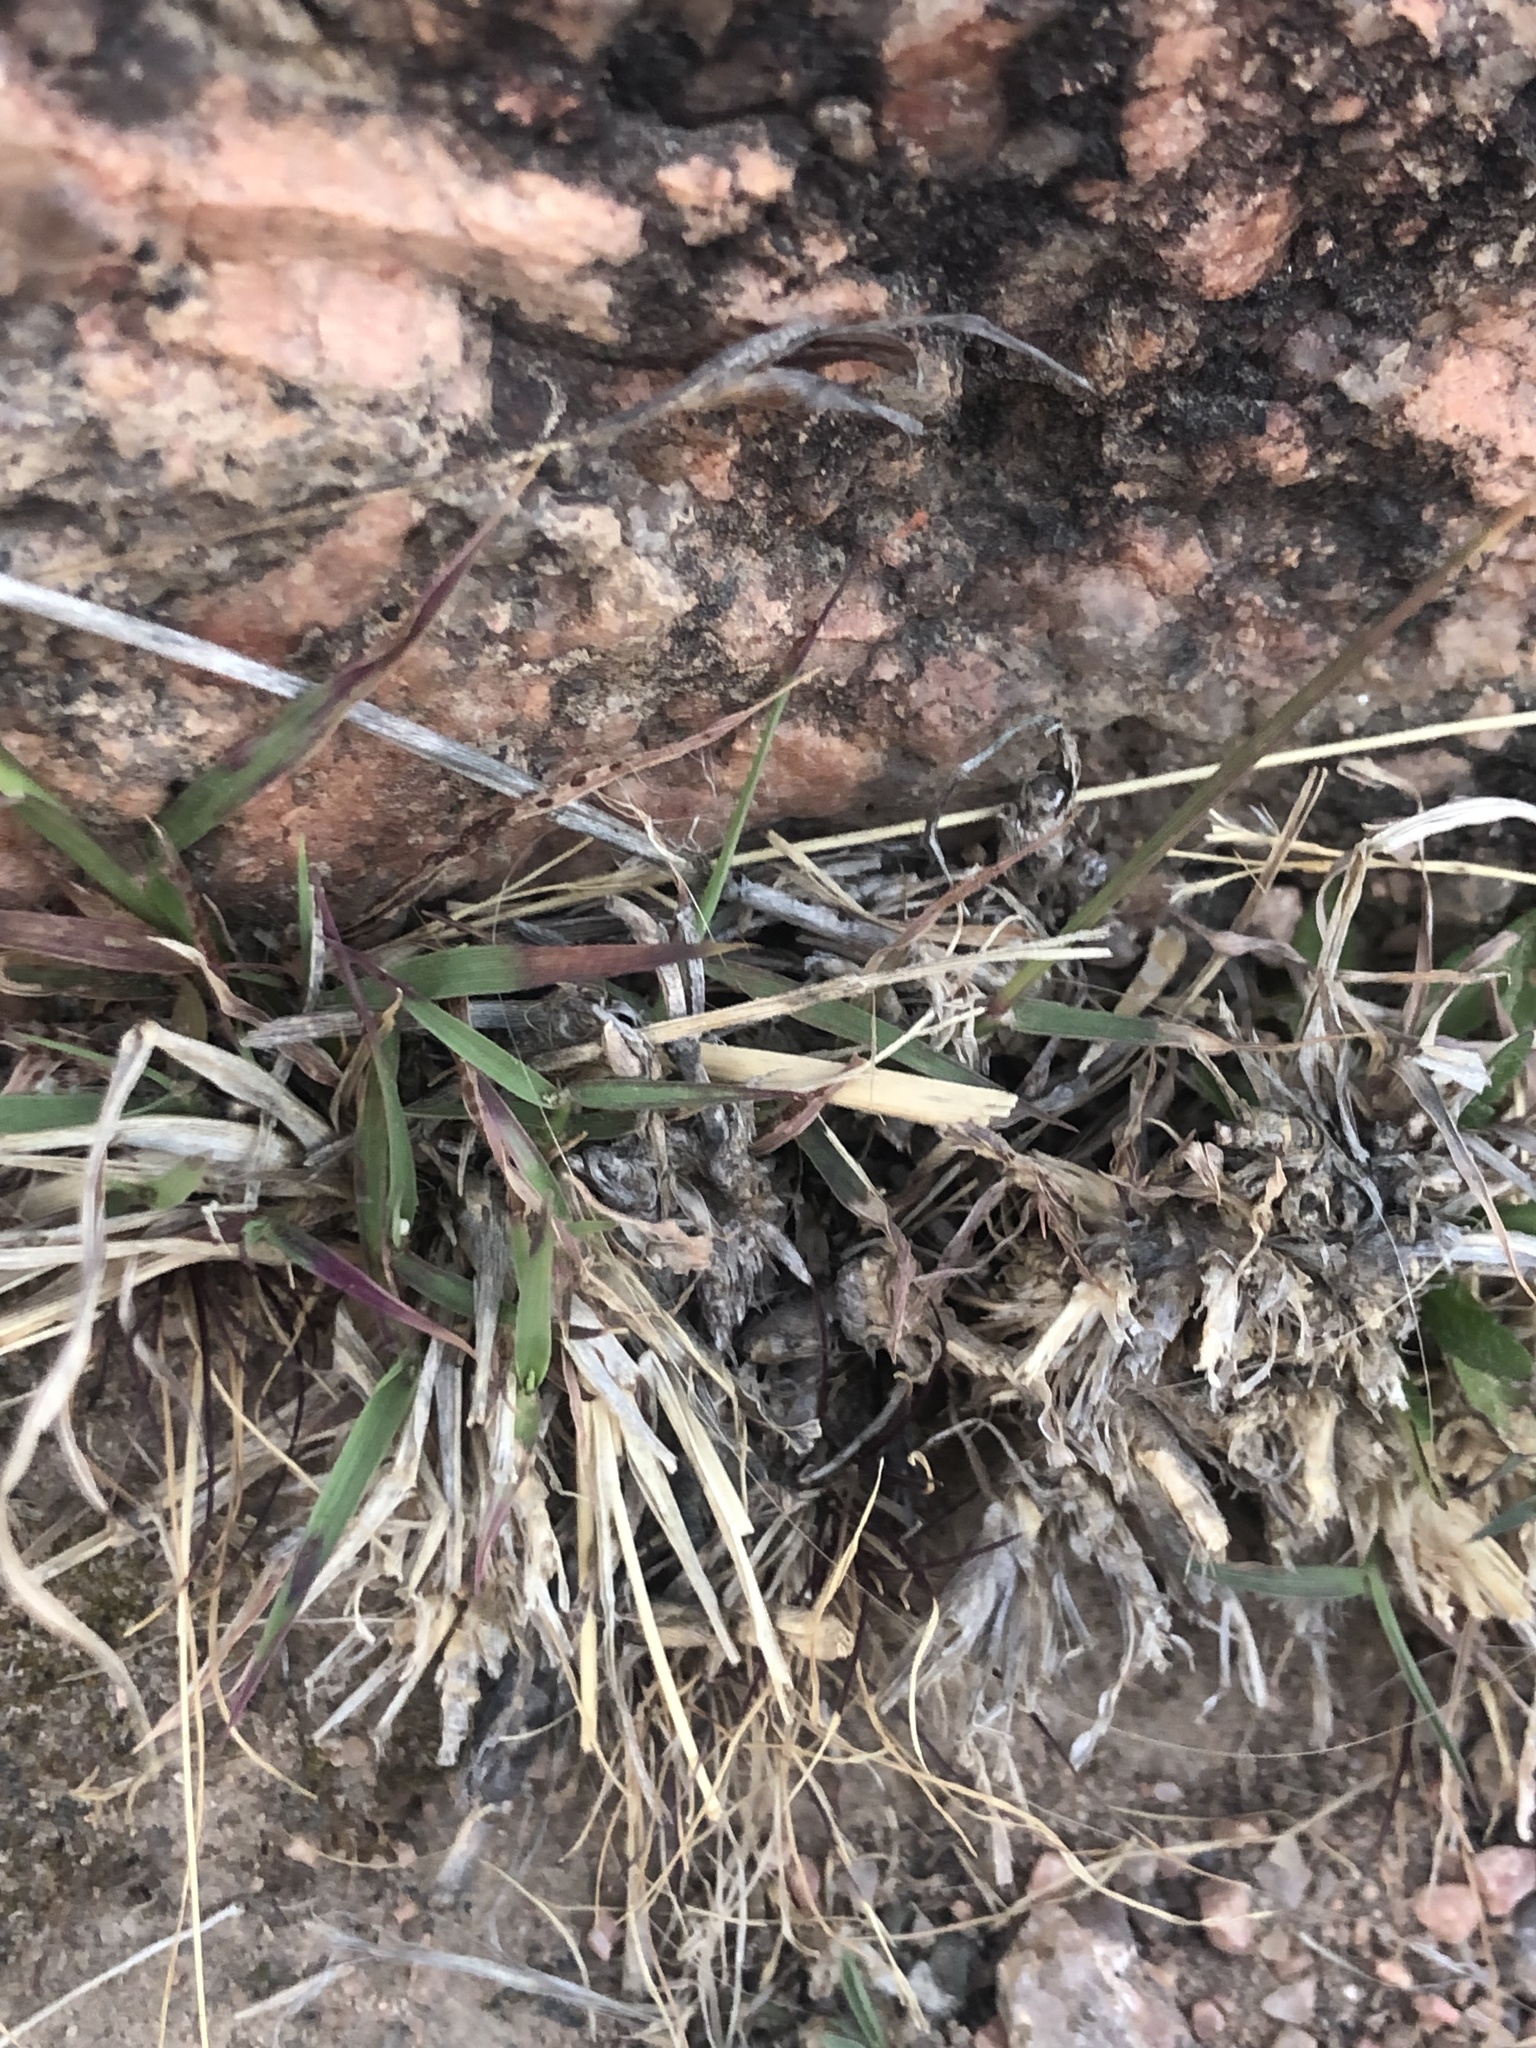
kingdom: Plantae
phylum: Tracheophyta
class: Liliopsida
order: Poales
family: Poaceae
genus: Bothriochloa
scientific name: Bothriochloa ischaemum
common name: Yellow bluestem
